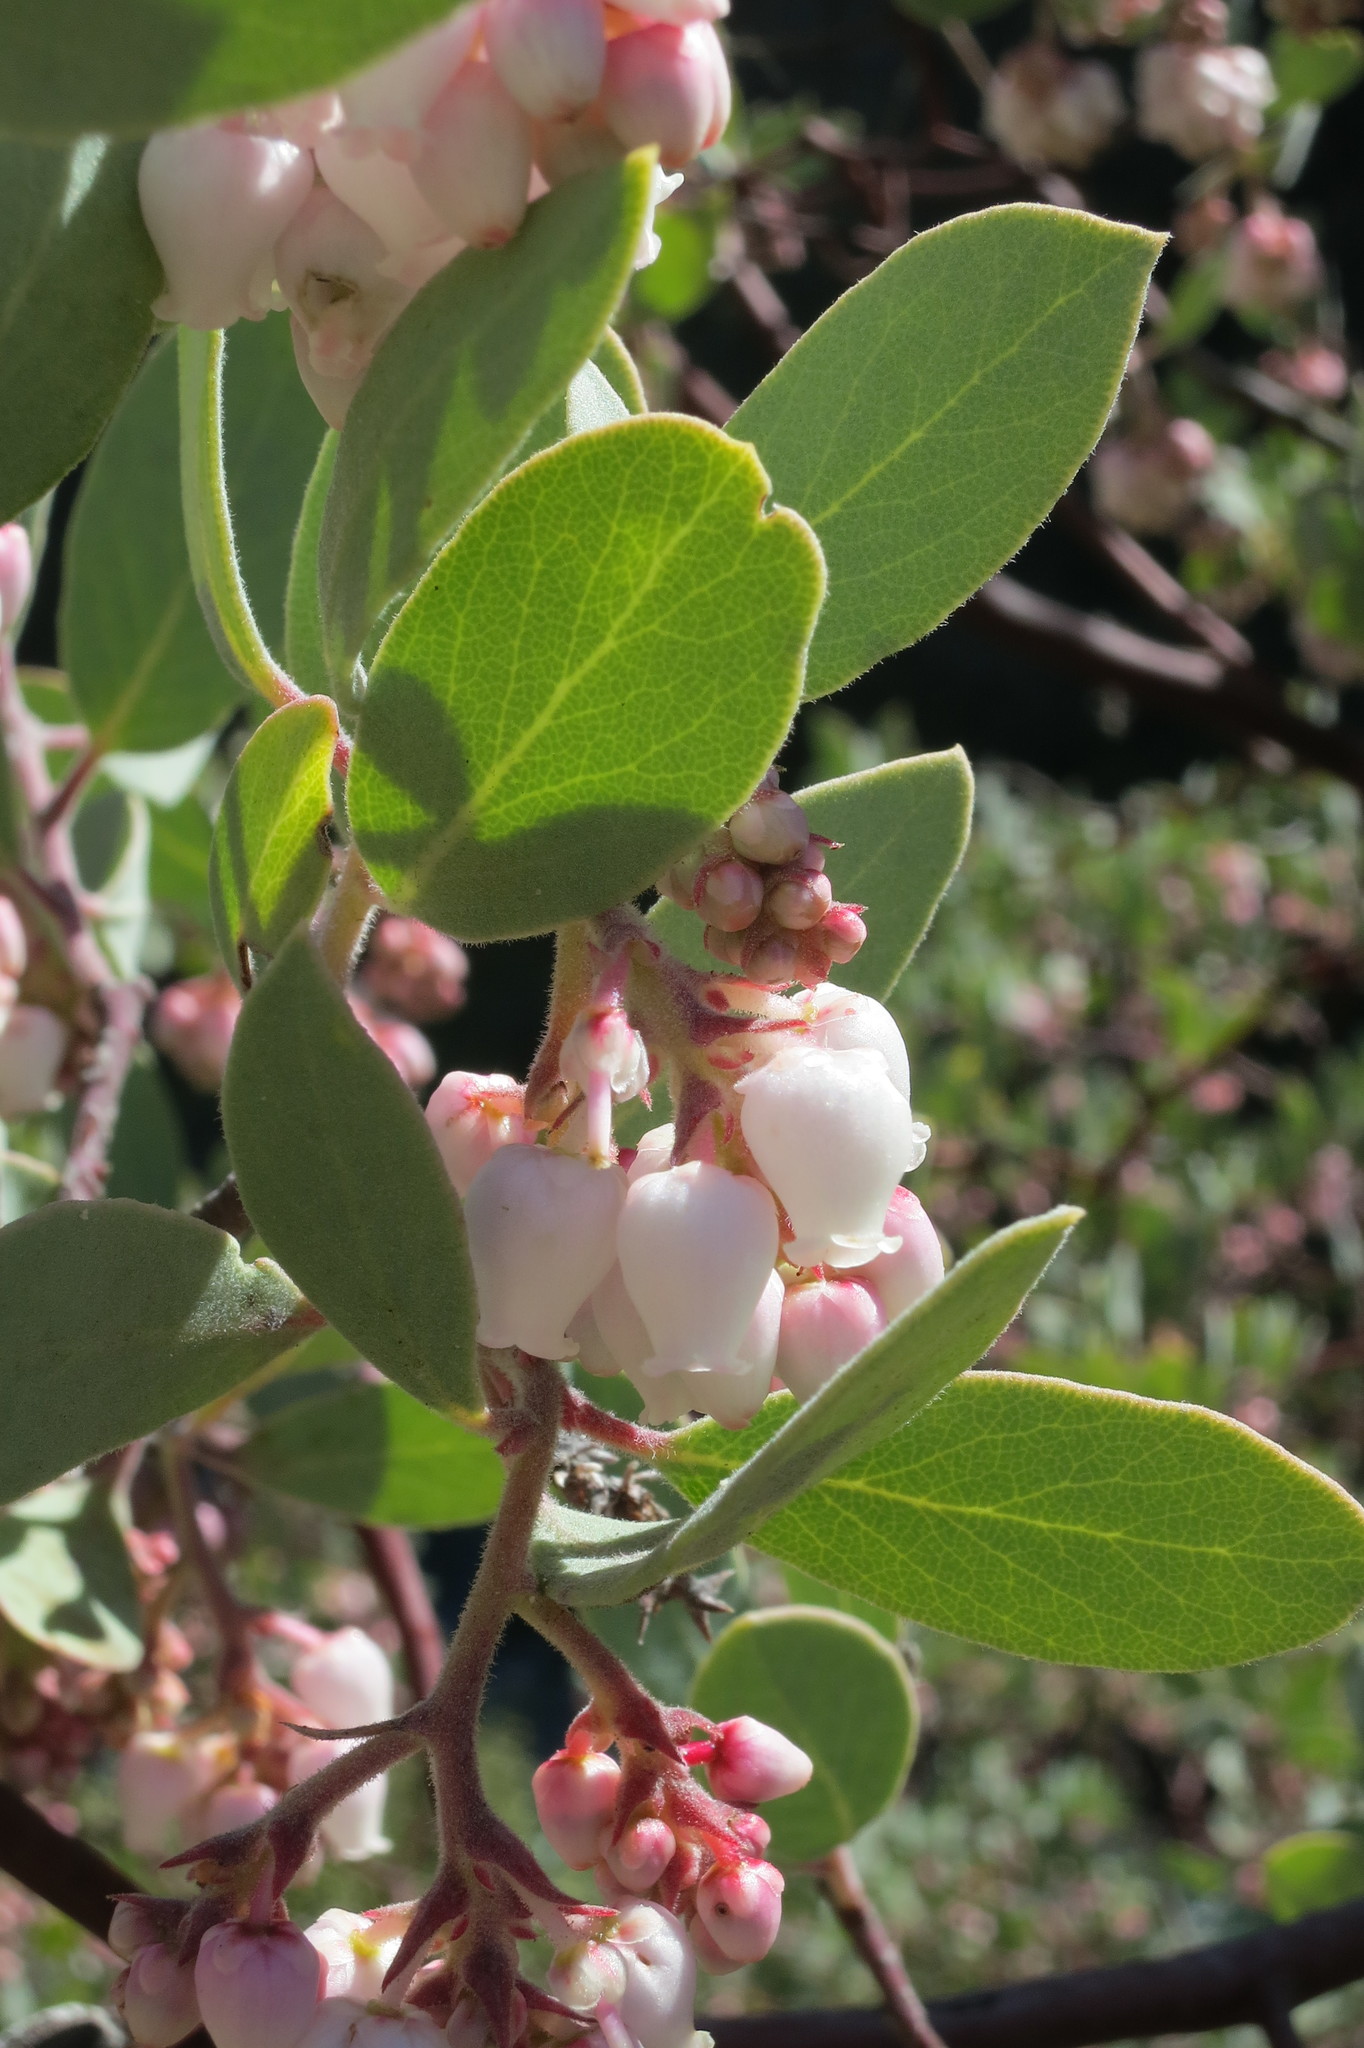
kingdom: Plantae
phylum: Tracheophyta
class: Magnoliopsida
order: Ericales
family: Ericaceae
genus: Arctostaphylos
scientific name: Arctostaphylos canescens
